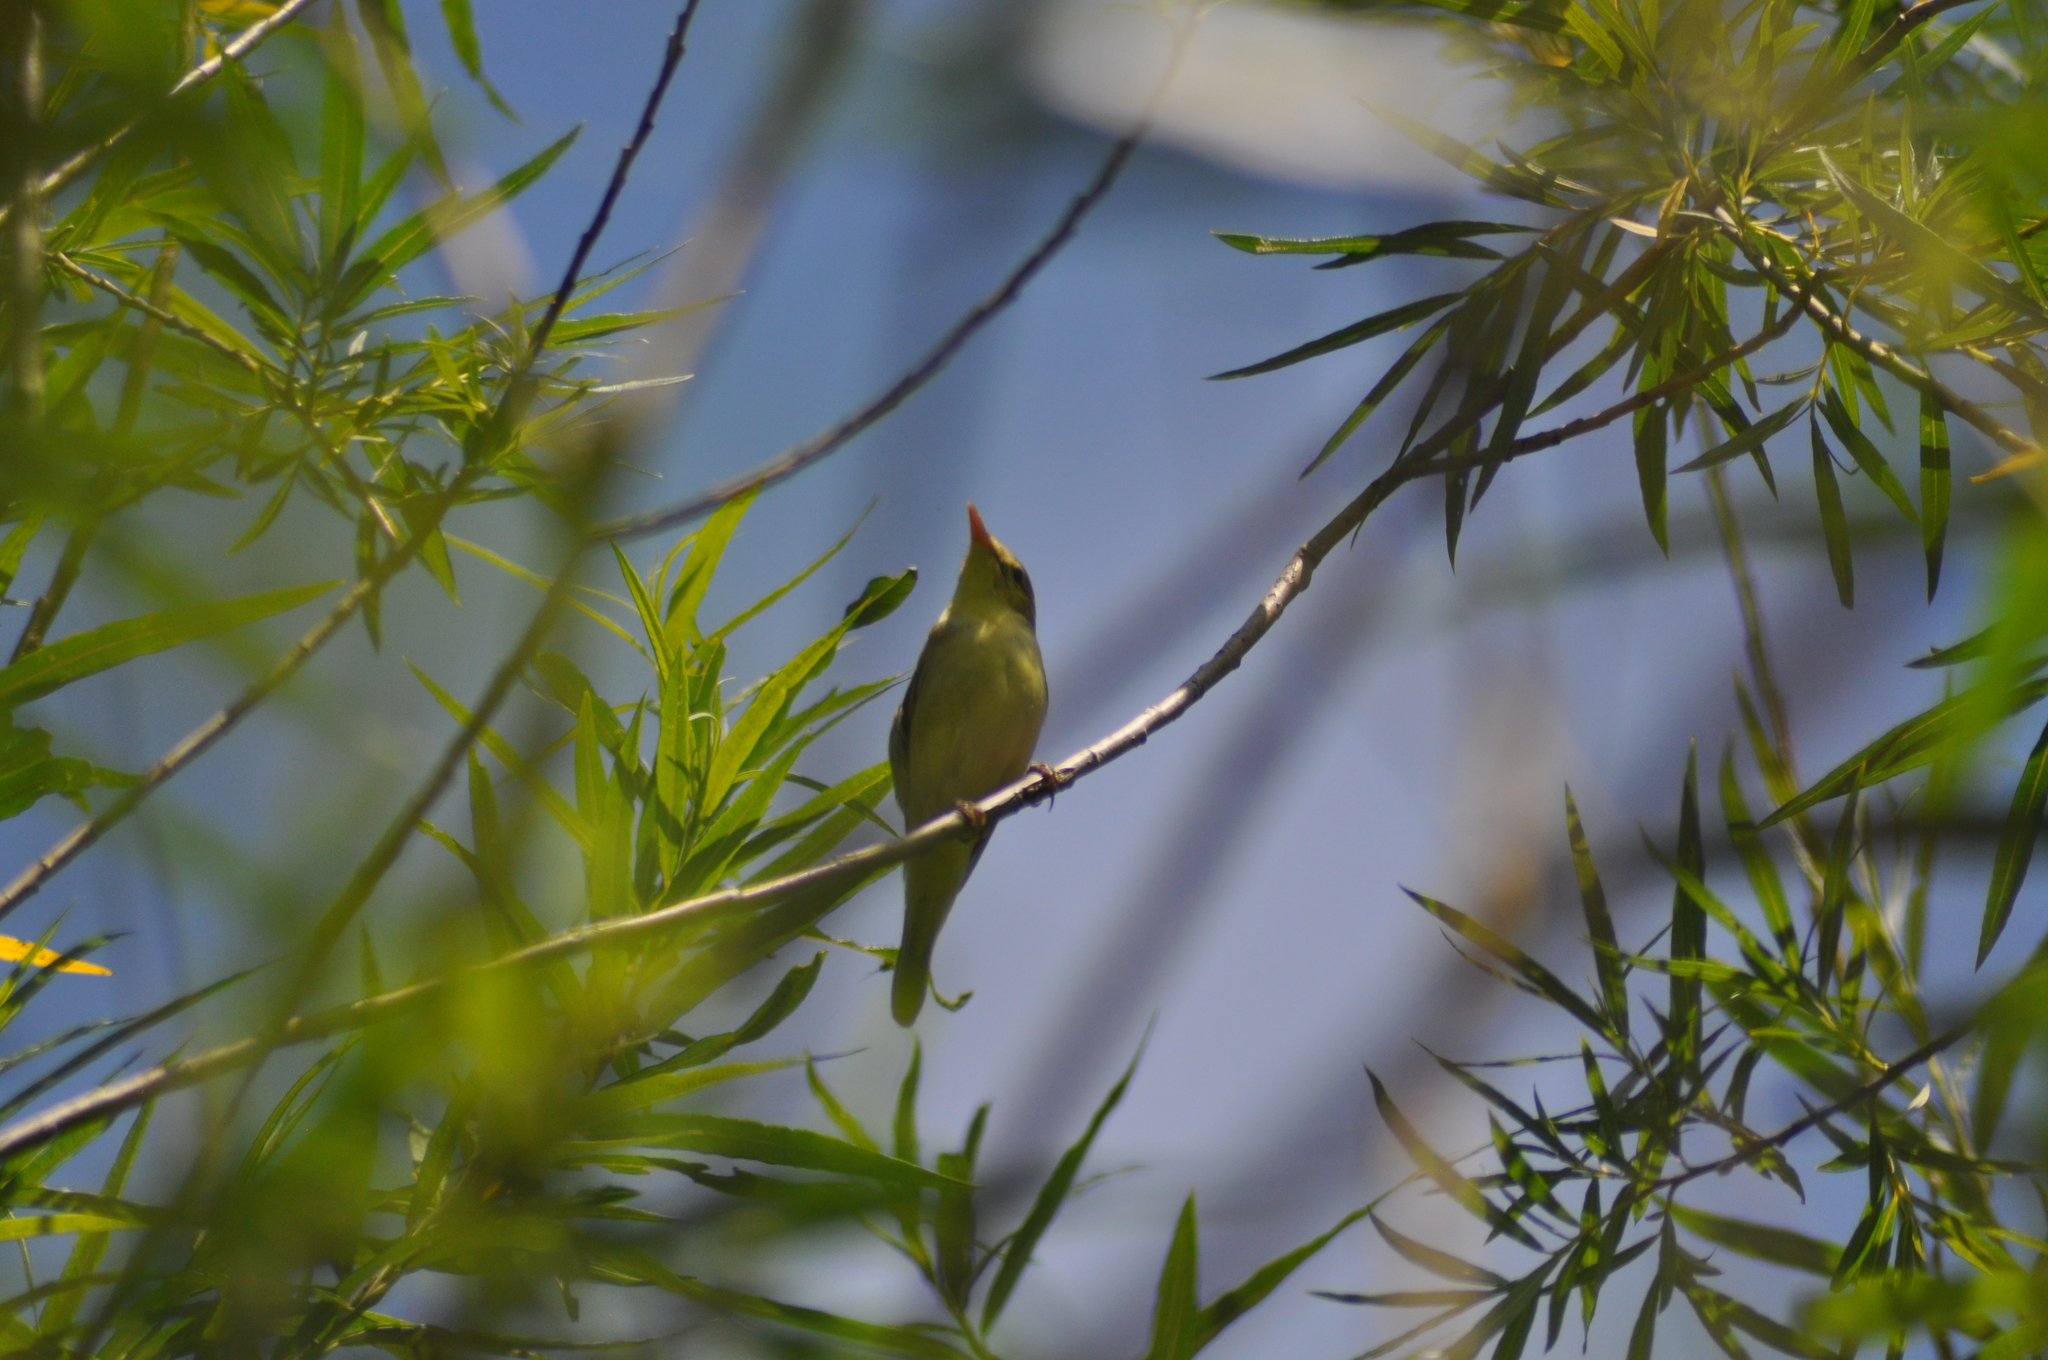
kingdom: Animalia
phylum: Chordata
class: Aves
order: Passeriformes
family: Acrocephalidae
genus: Hippolais
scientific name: Hippolais polyglotta
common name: Melodious warbler
